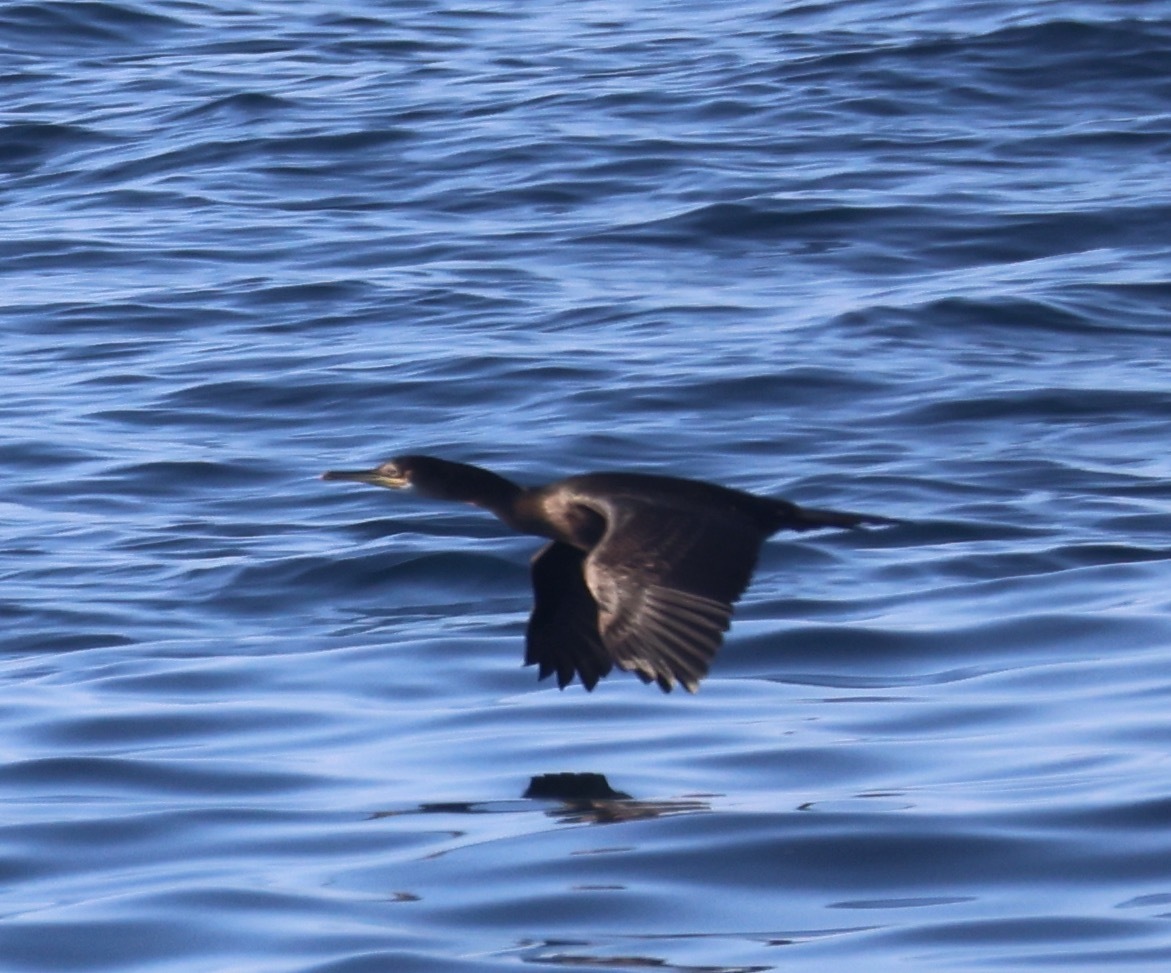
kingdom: Animalia
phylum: Chordata
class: Aves
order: Suliformes
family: Phalacrocoracidae
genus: Phalacrocorax
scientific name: Phalacrocorax aristotelis
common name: European shag
